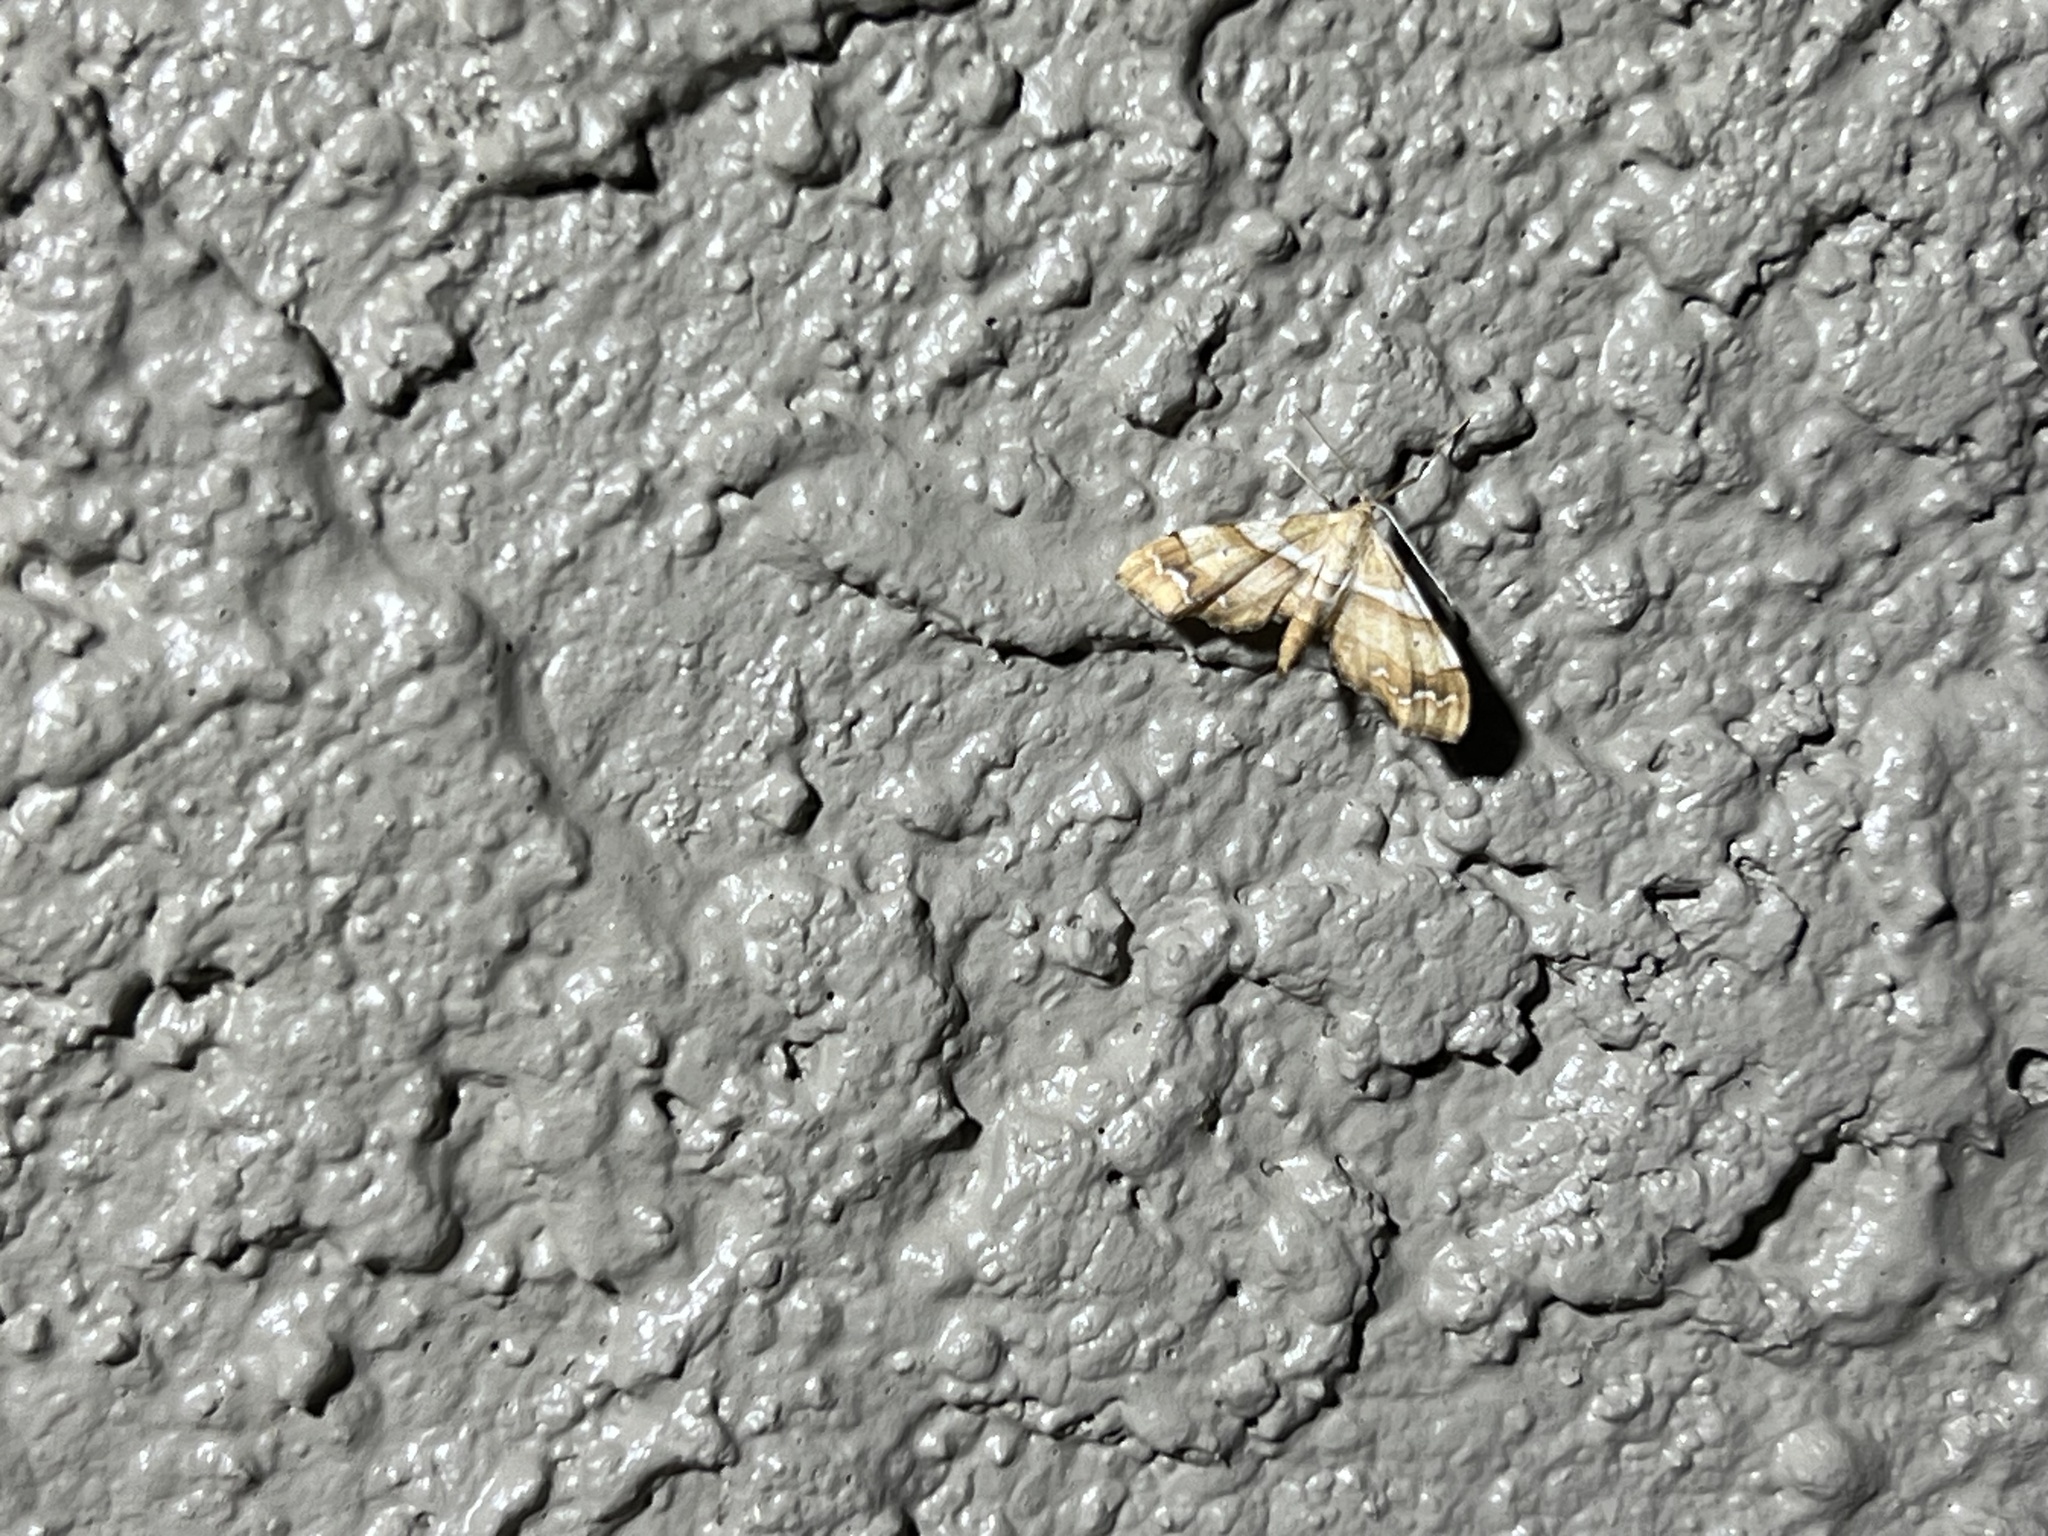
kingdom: Animalia
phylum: Arthropoda
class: Insecta
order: Lepidoptera
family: Geometridae
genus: Odontoptila
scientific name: Odontoptila obrimo
